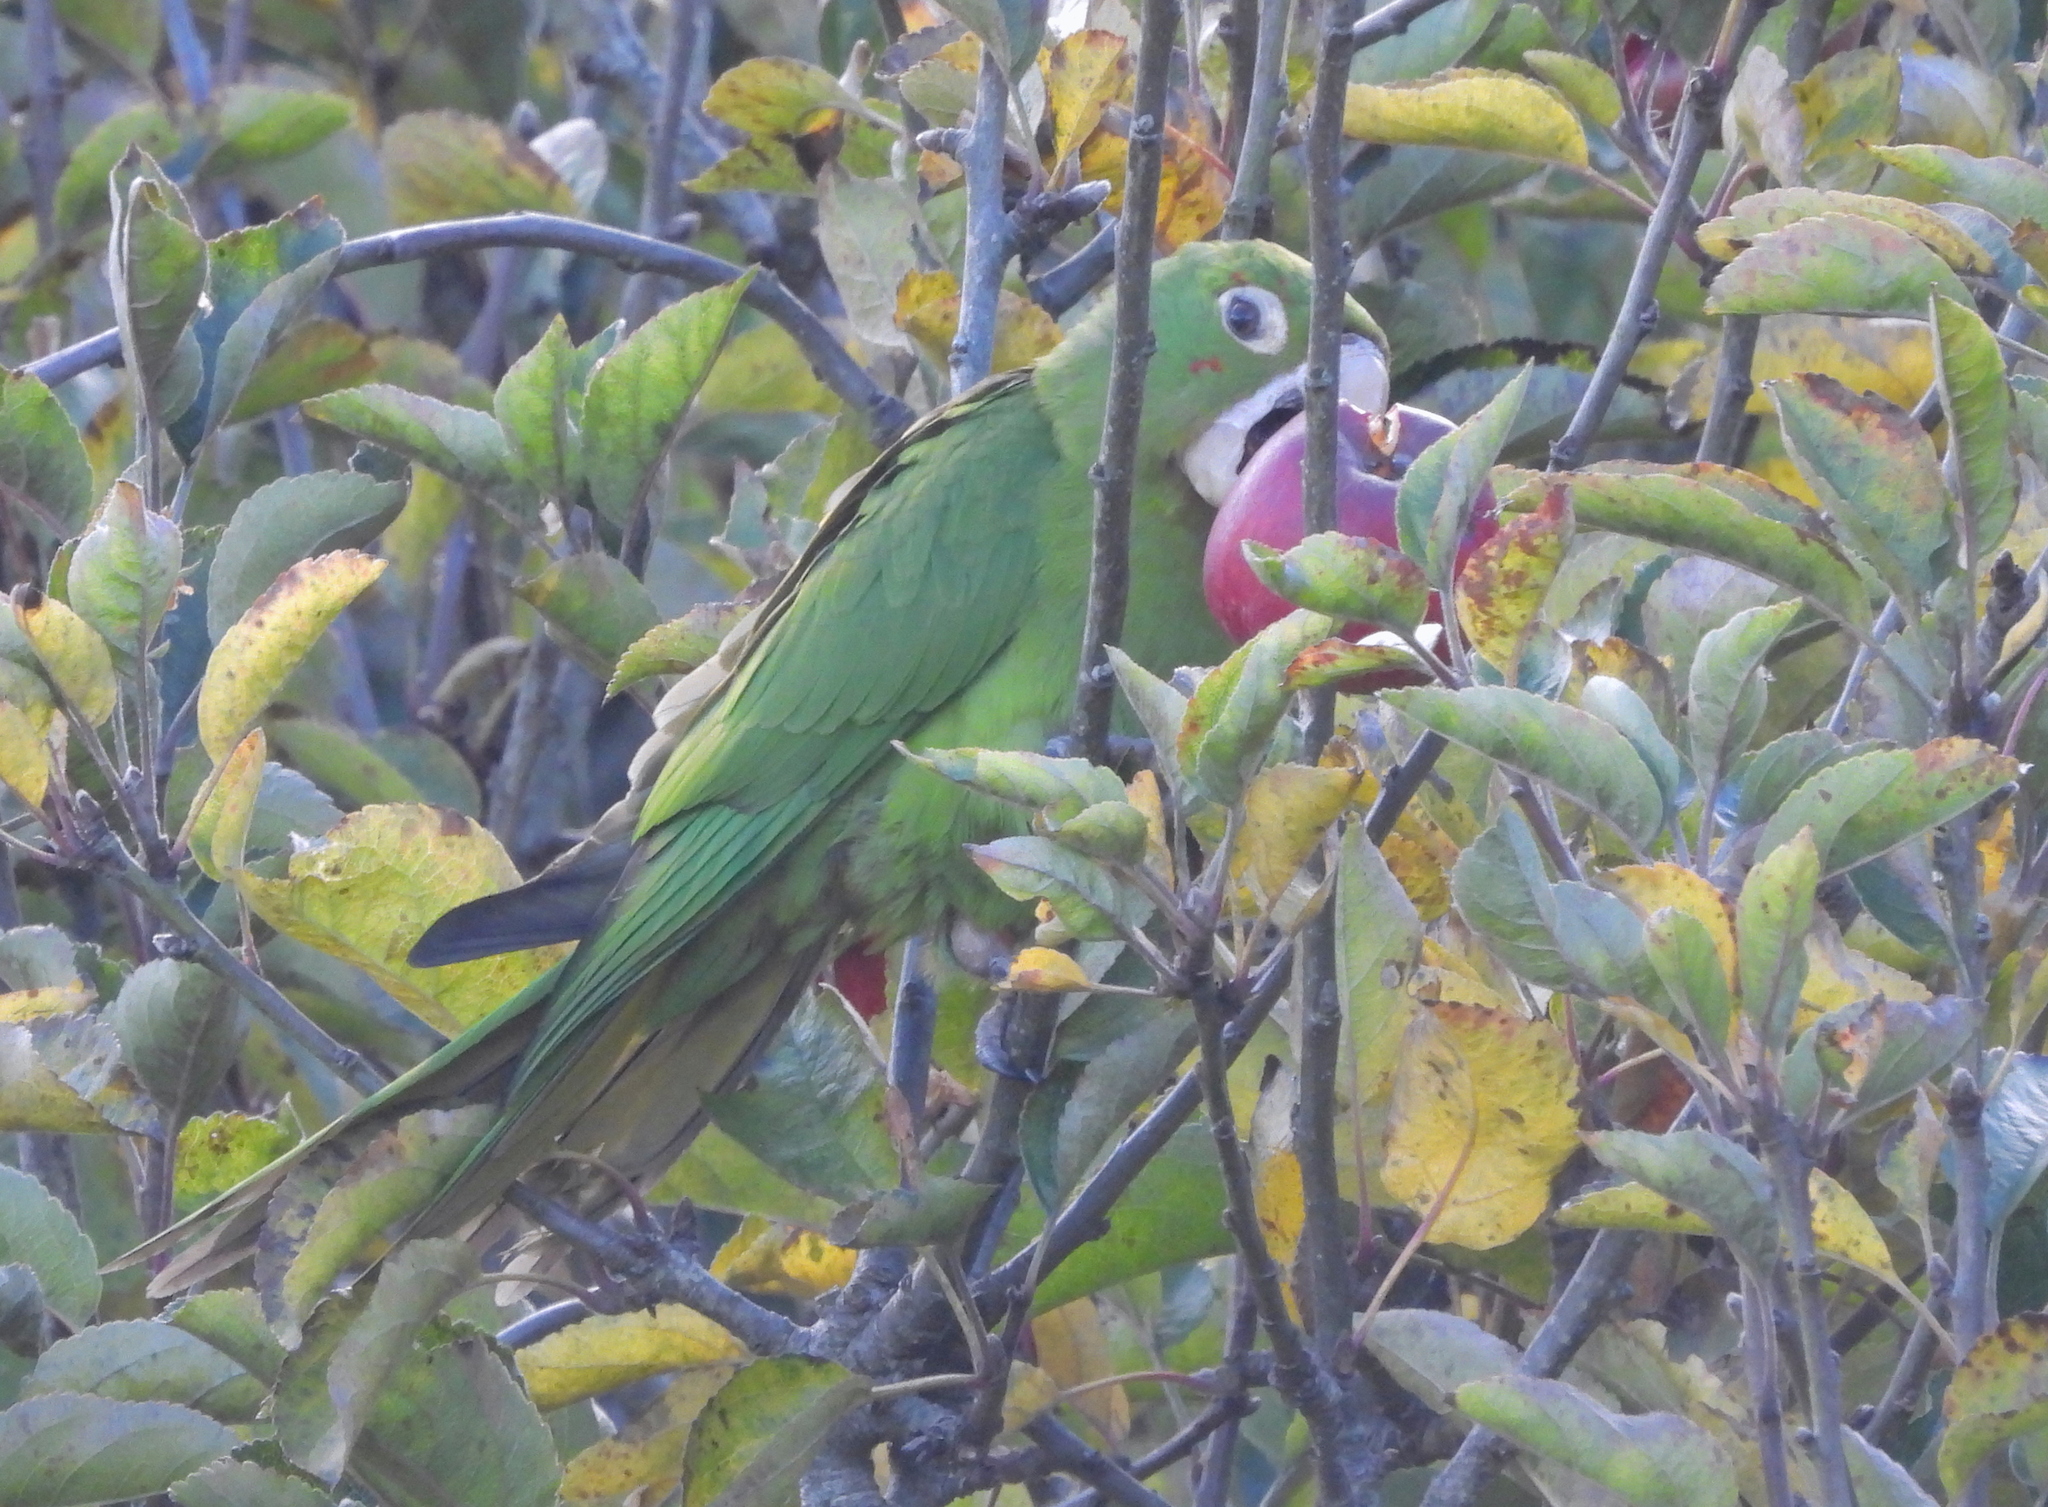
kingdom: Animalia
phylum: Chordata
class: Aves
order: Psittaciformes
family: Psittacidae
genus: Aratinga
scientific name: Aratinga erythrogenys
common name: Red-masked parakeet
